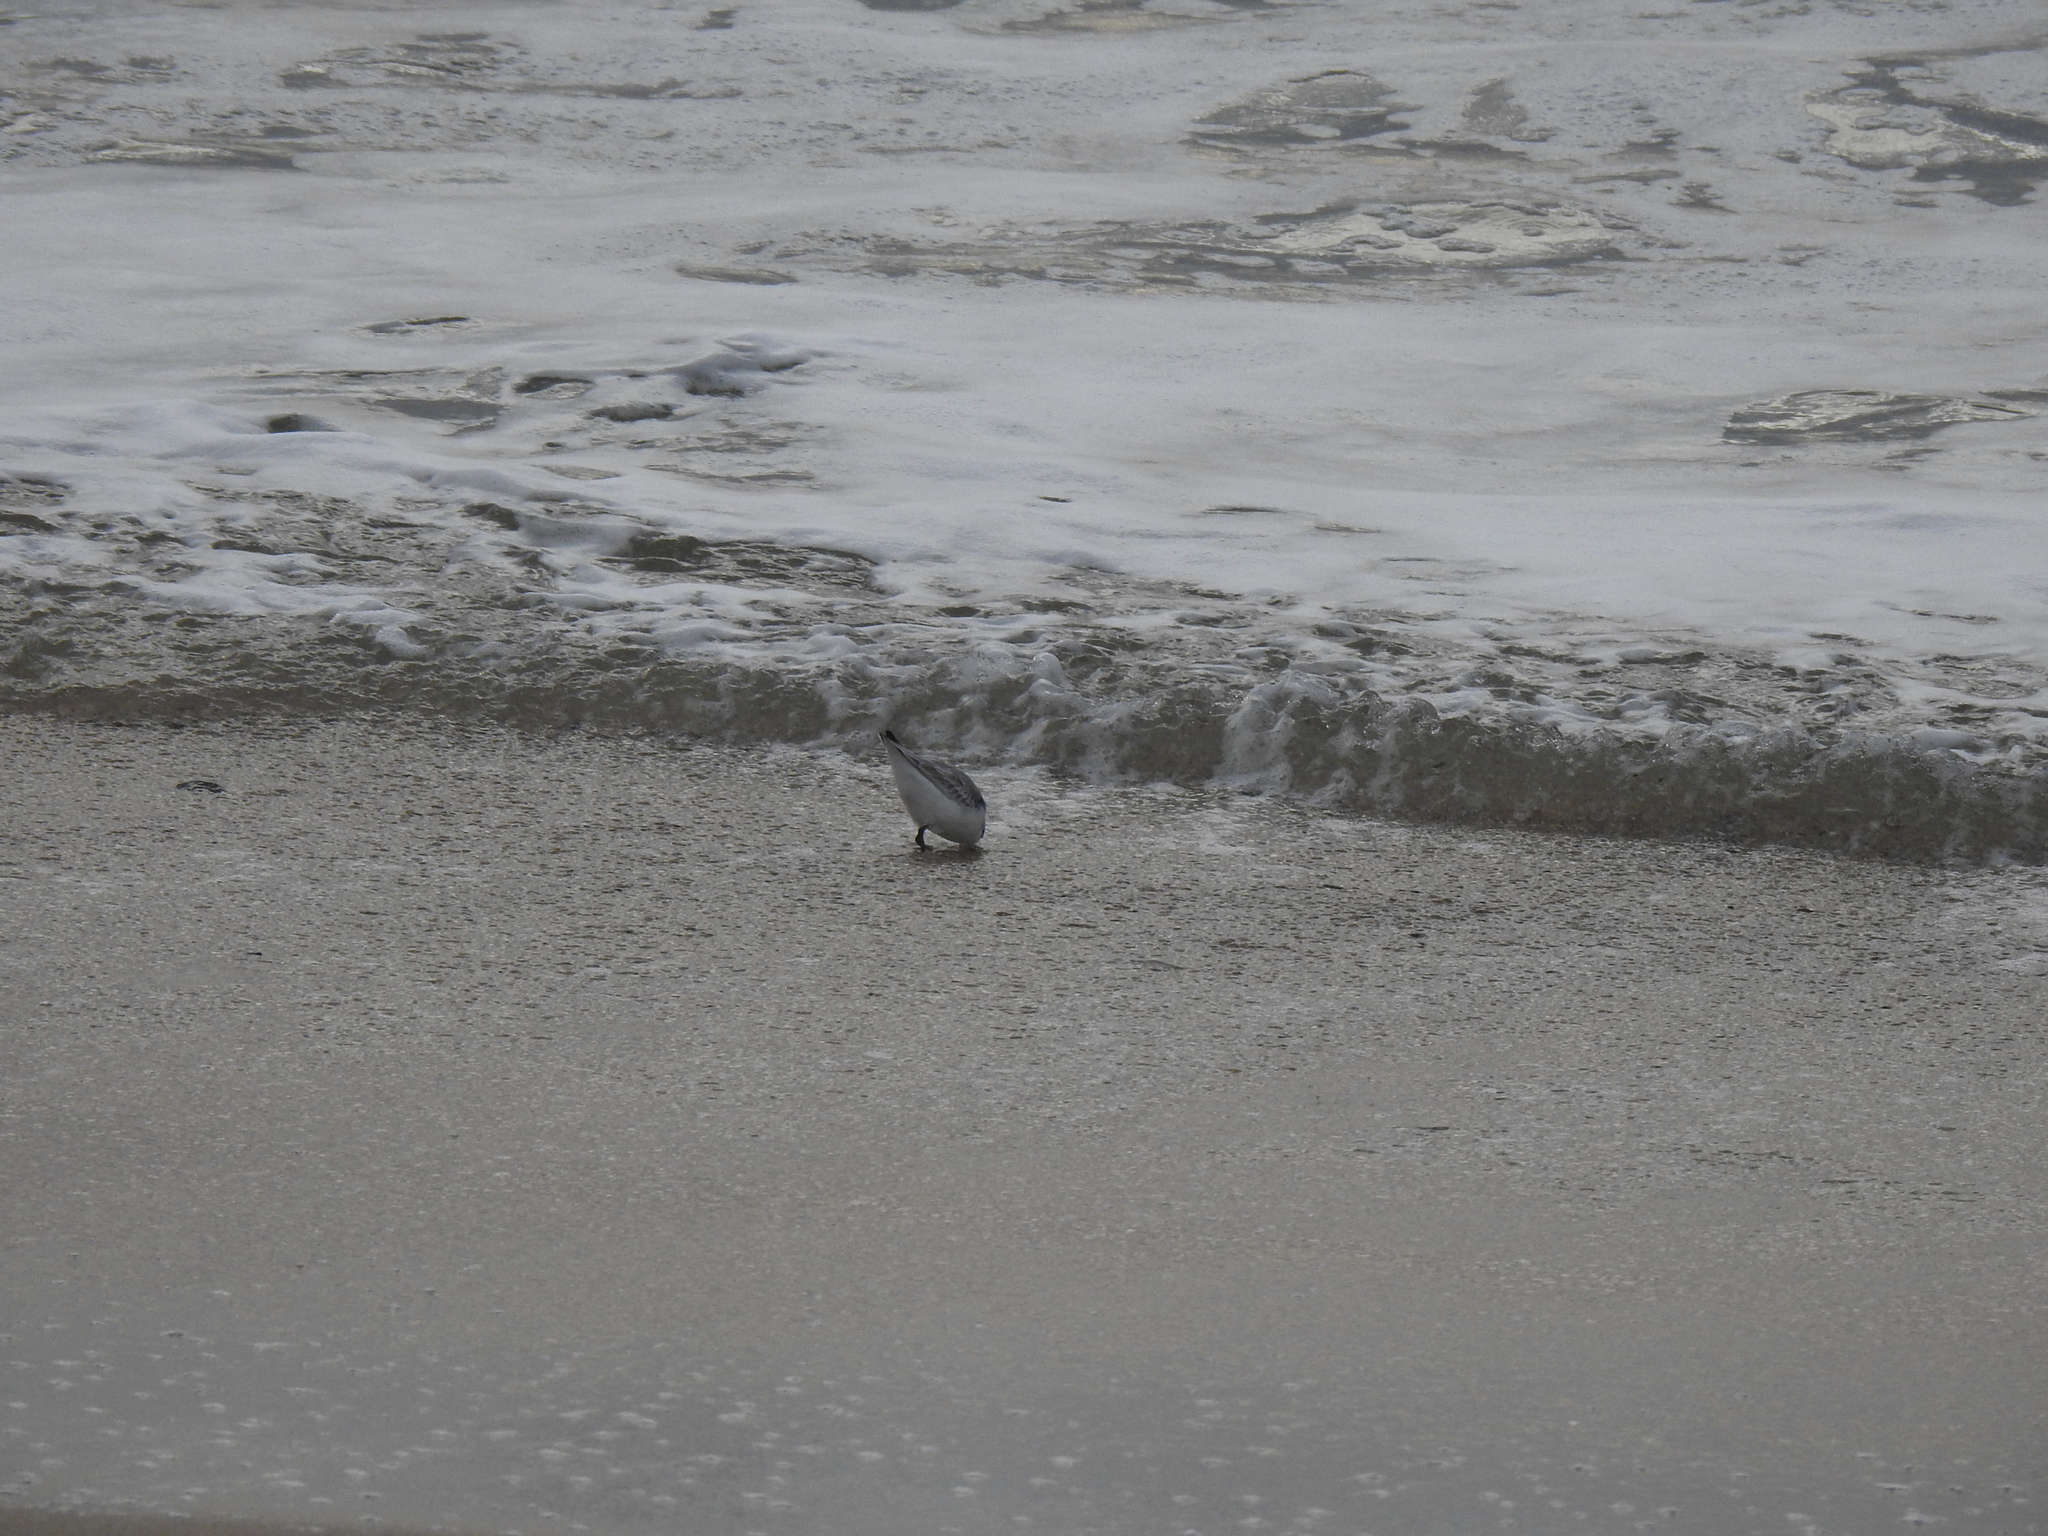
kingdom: Animalia
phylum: Chordata
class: Aves
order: Charadriiformes
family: Scolopacidae
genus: Calidris
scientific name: Calidris alba
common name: Sanderling
